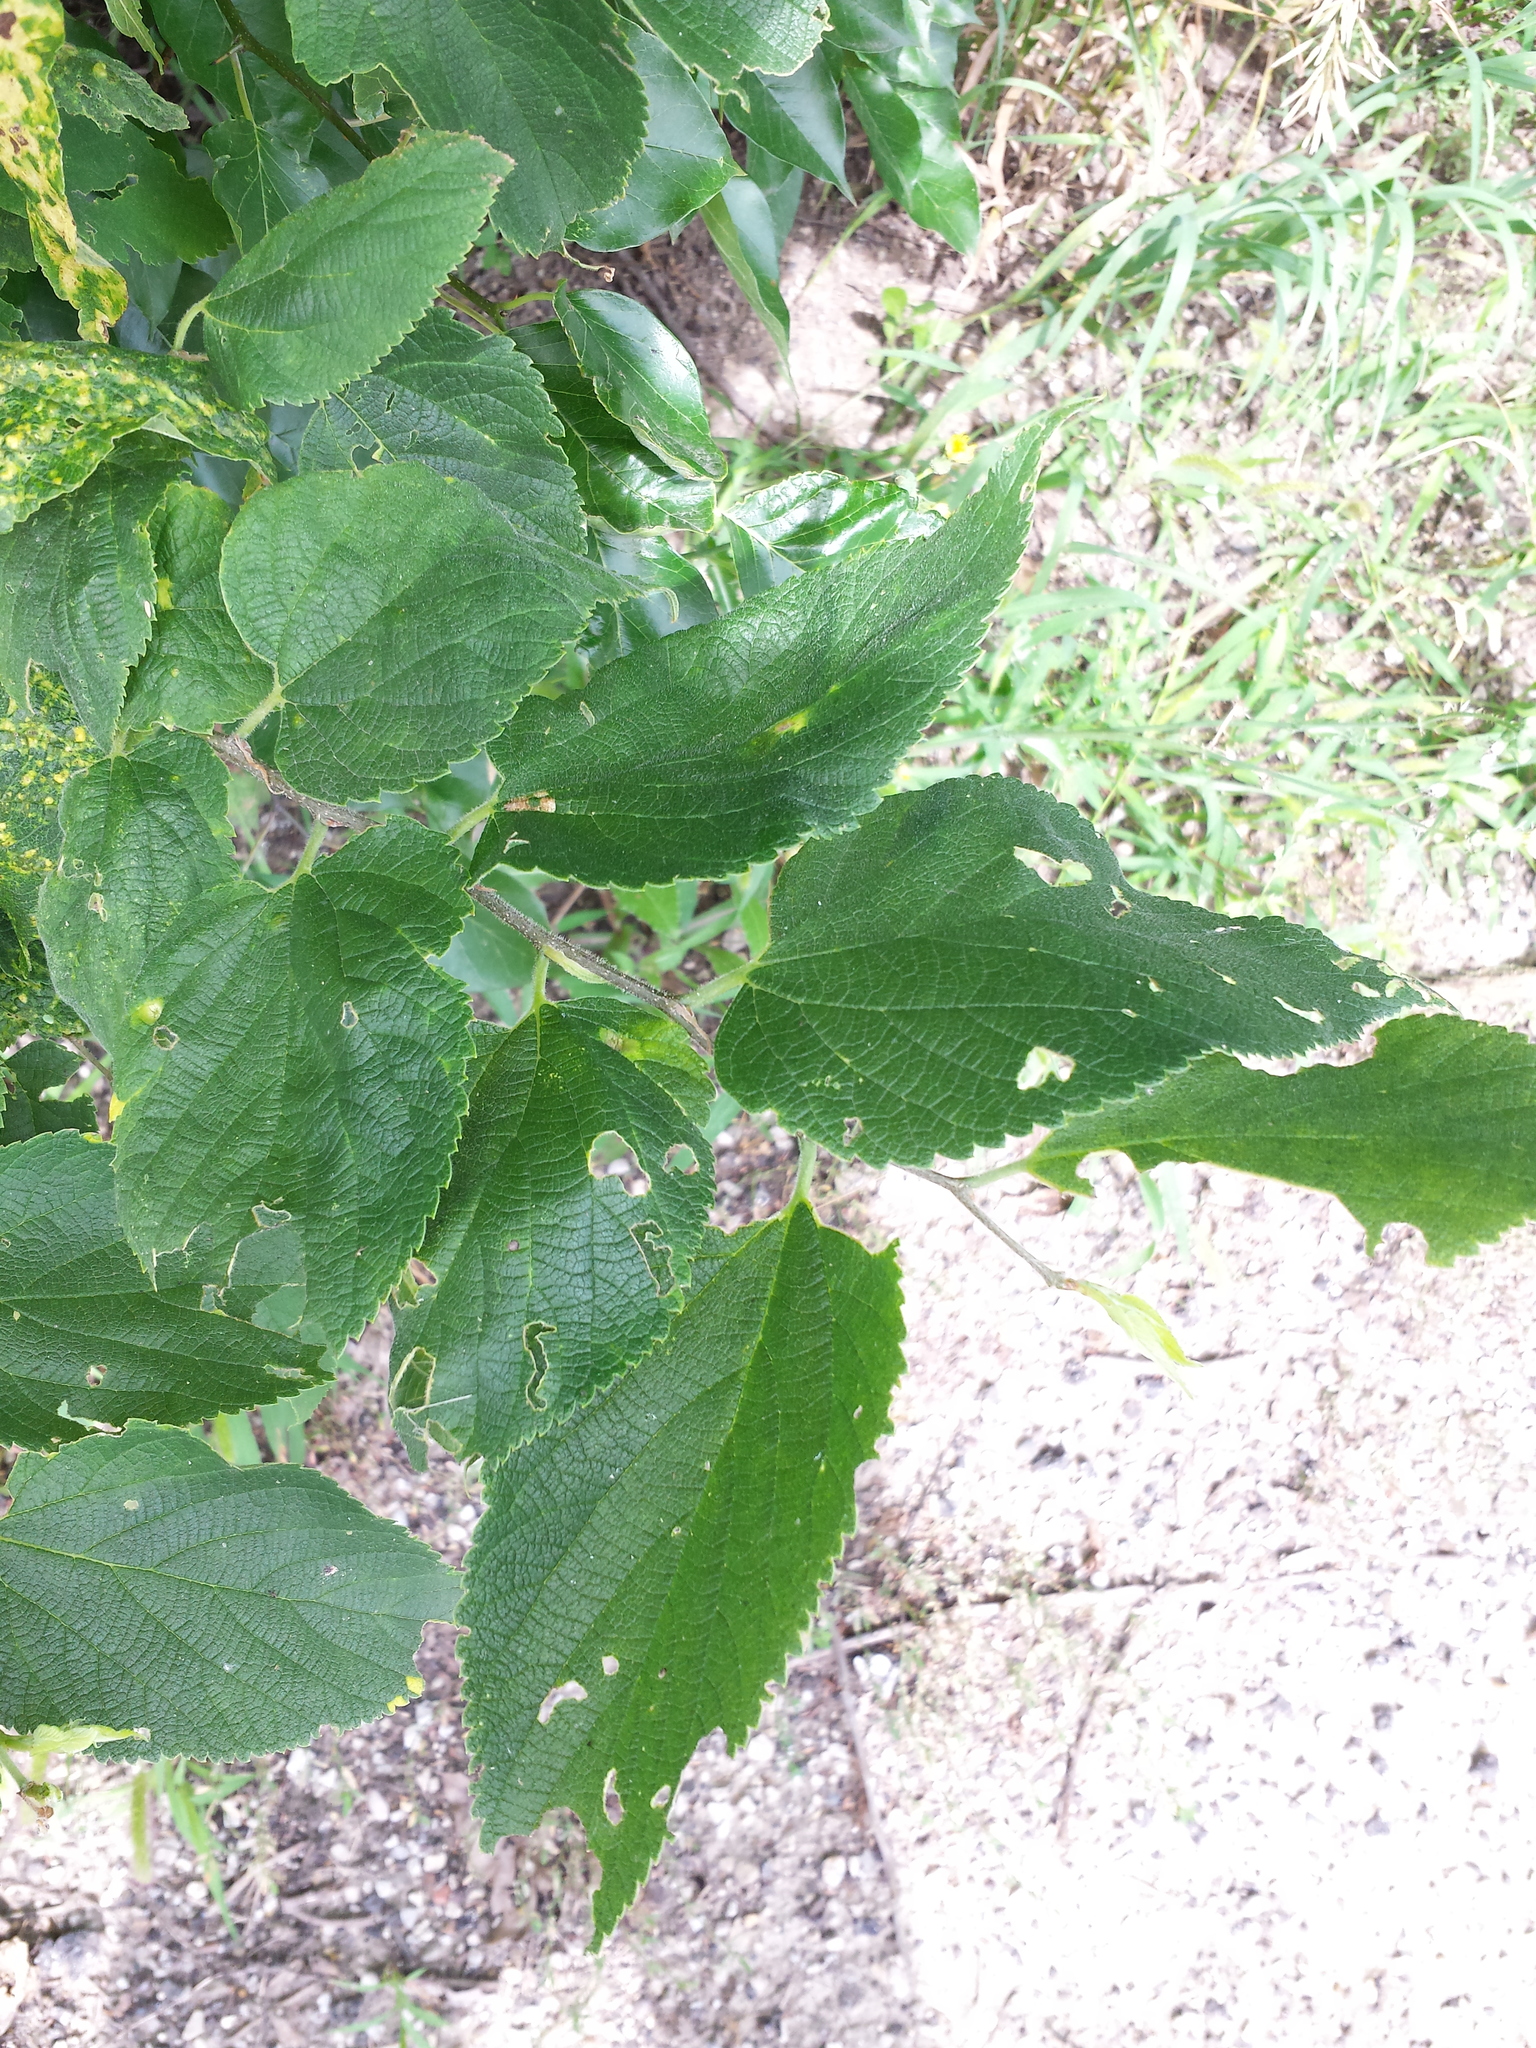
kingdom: Plantae
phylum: Tracheophyta
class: Magnoliopsida
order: Rosales
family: Cannabaceae
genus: Celtis
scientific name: Celtis occidentalis
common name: Common hackberry
